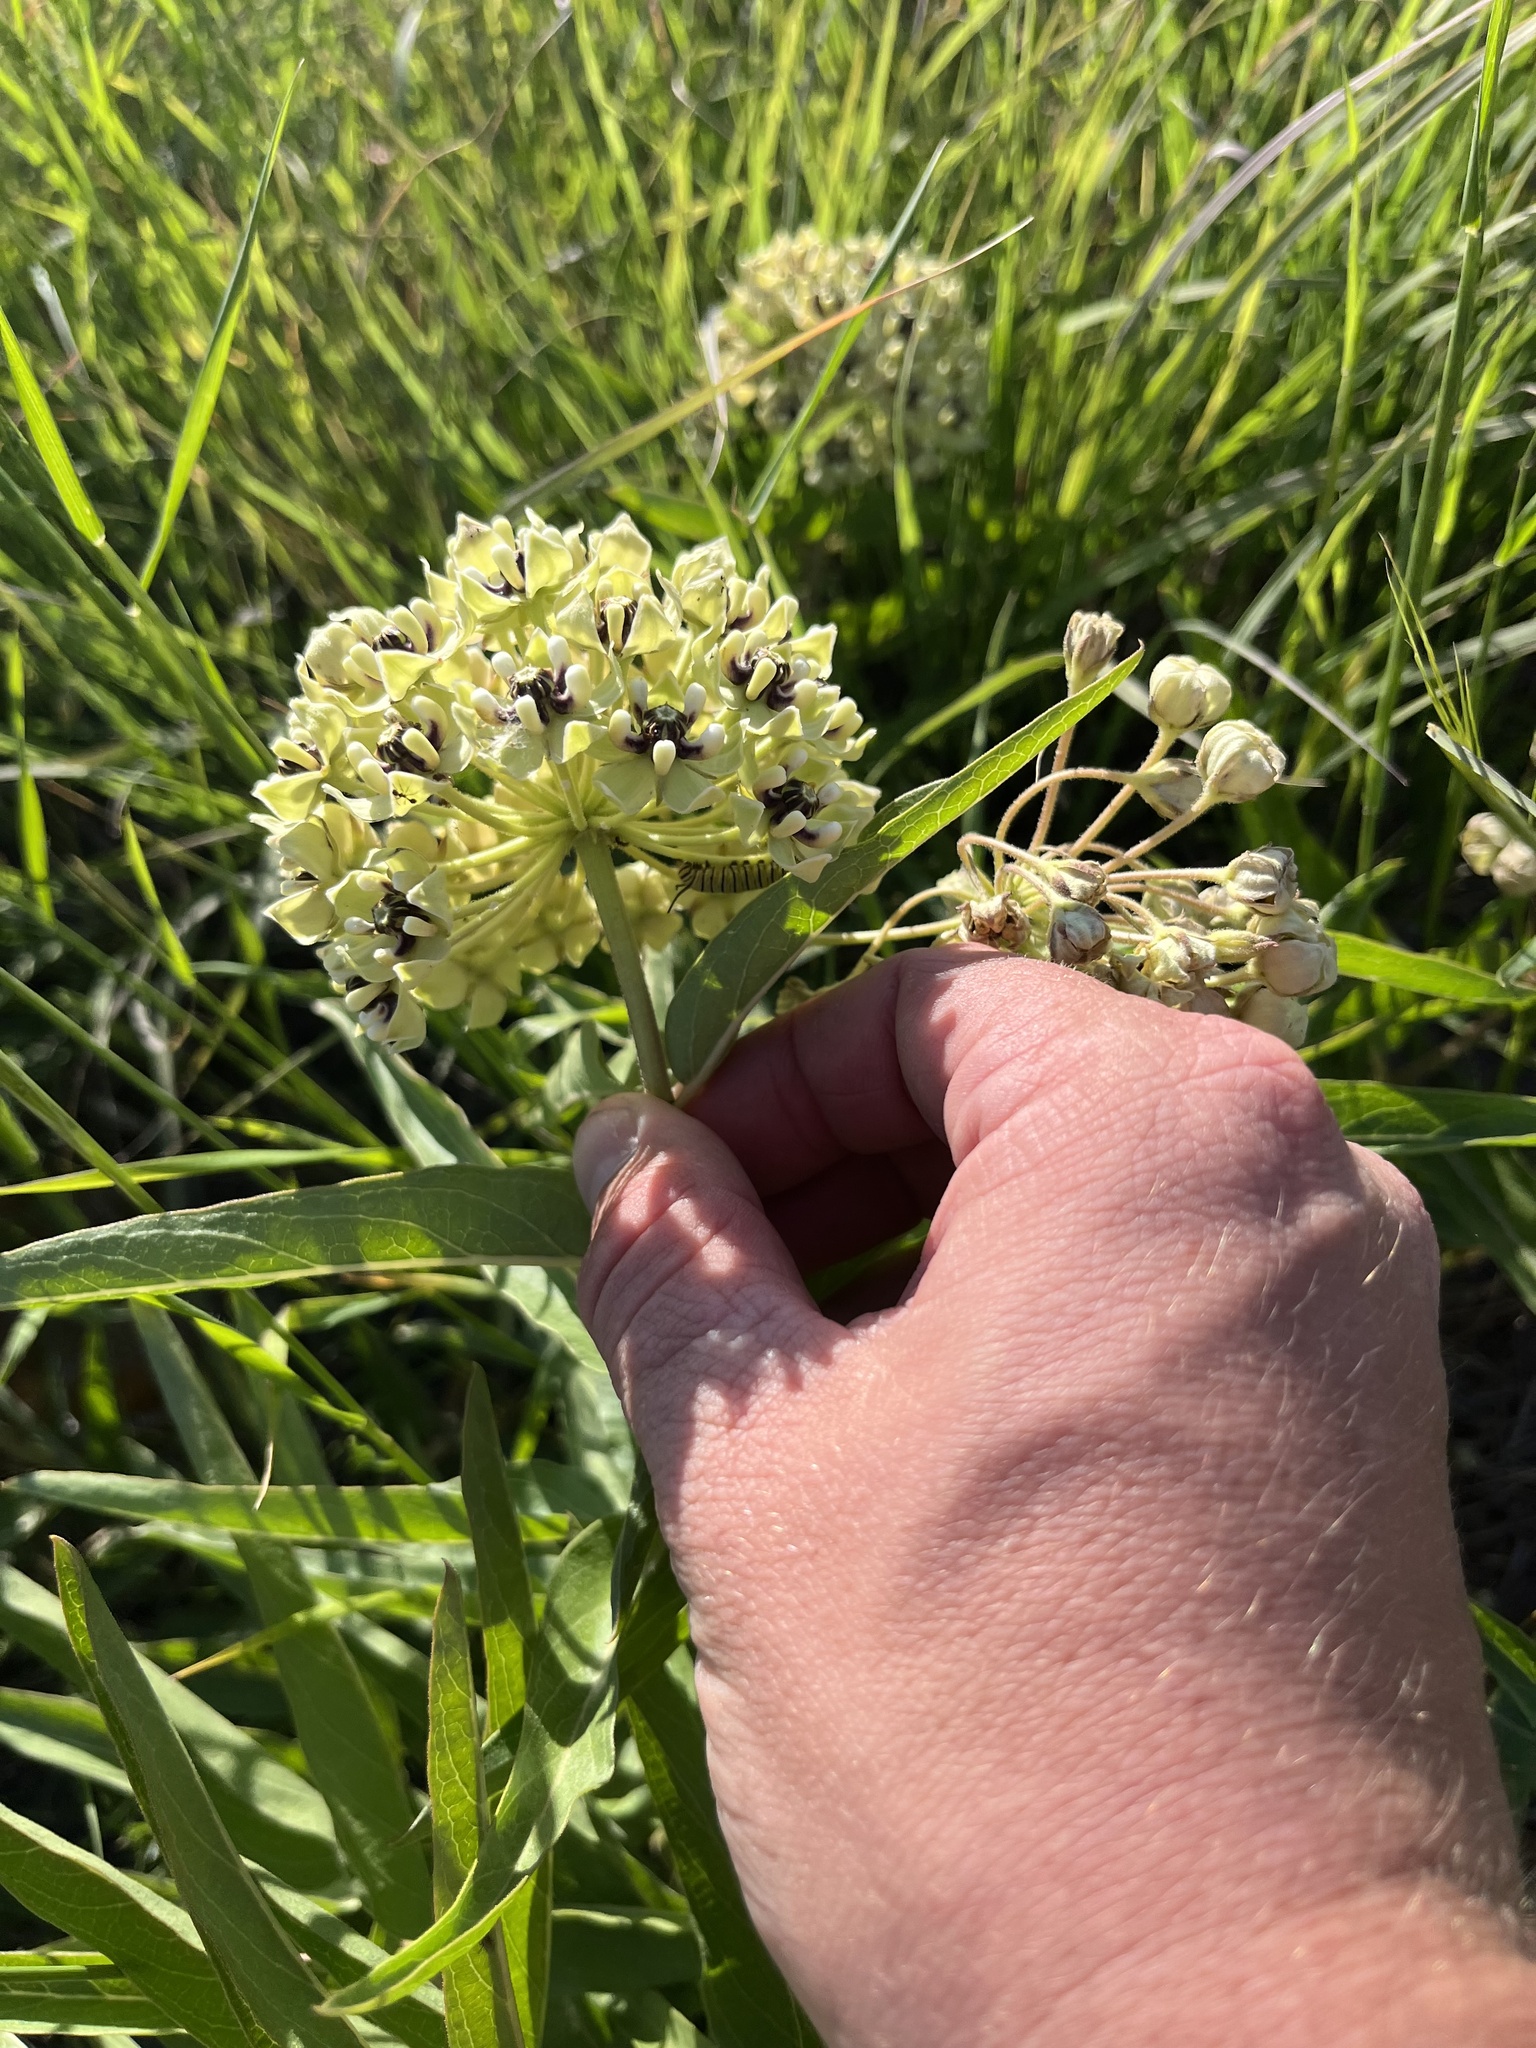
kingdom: Plantae
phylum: Tracheophyta
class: Magnoliopsida
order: Gentianales
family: Apocynaceae
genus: Asclepias
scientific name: Asclepias asperula
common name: Antelope horns
